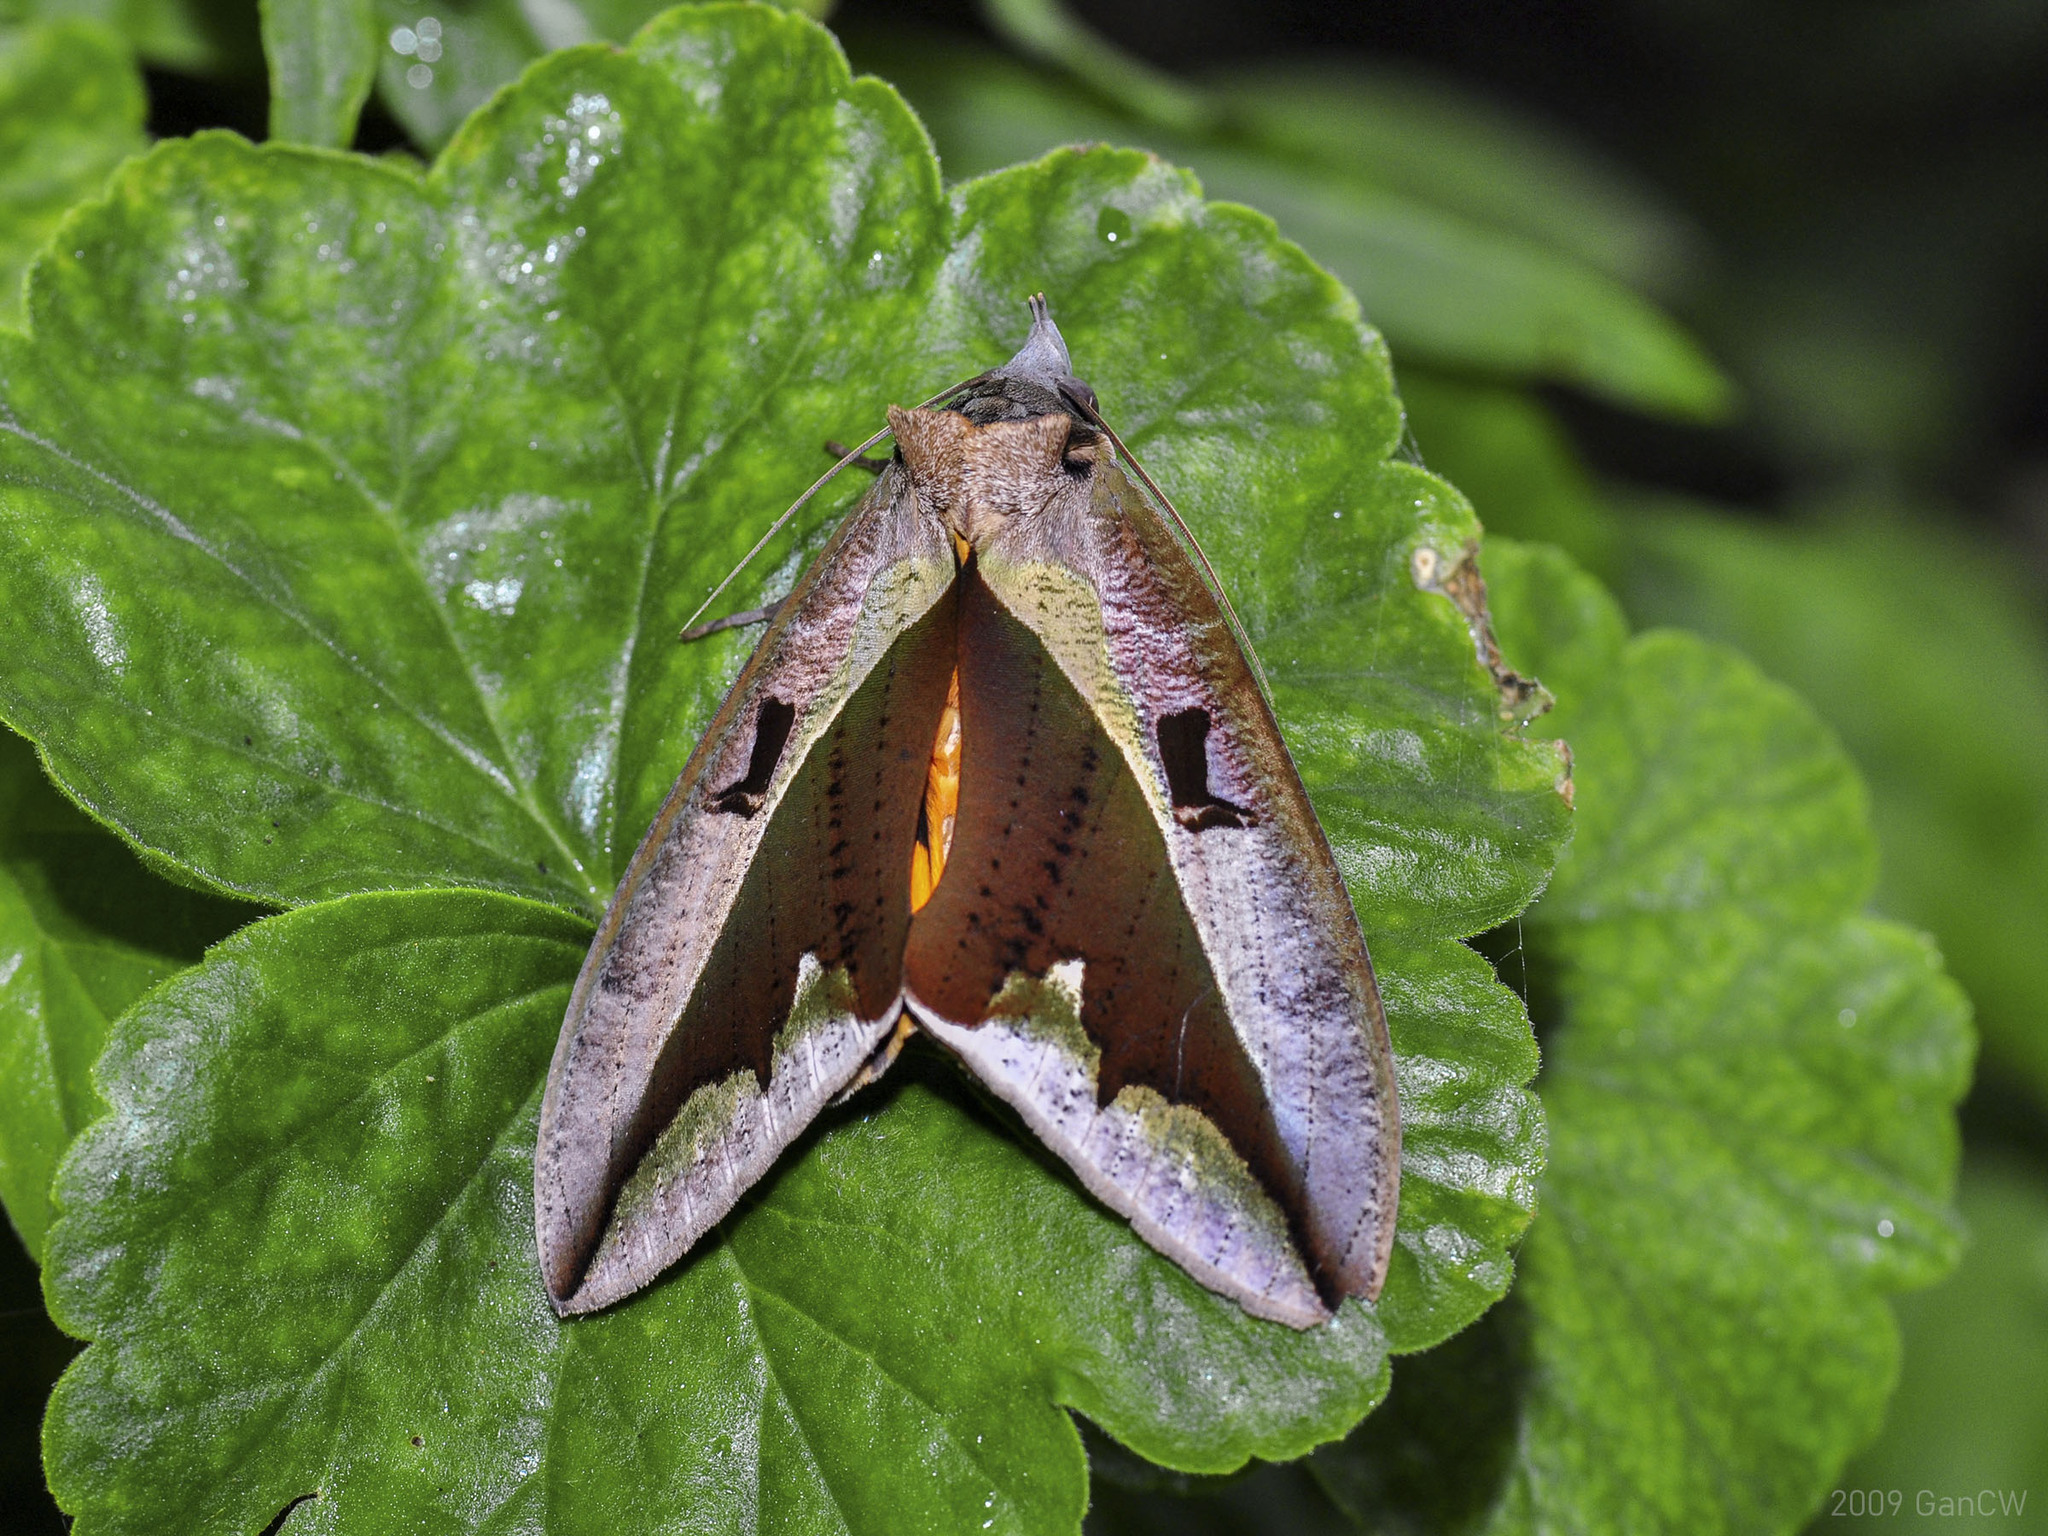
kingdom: Animalia
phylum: Arthropoda
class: Insecta
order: Lepidoptera
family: Erebidae
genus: Eudocima
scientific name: Eudocima dividens
